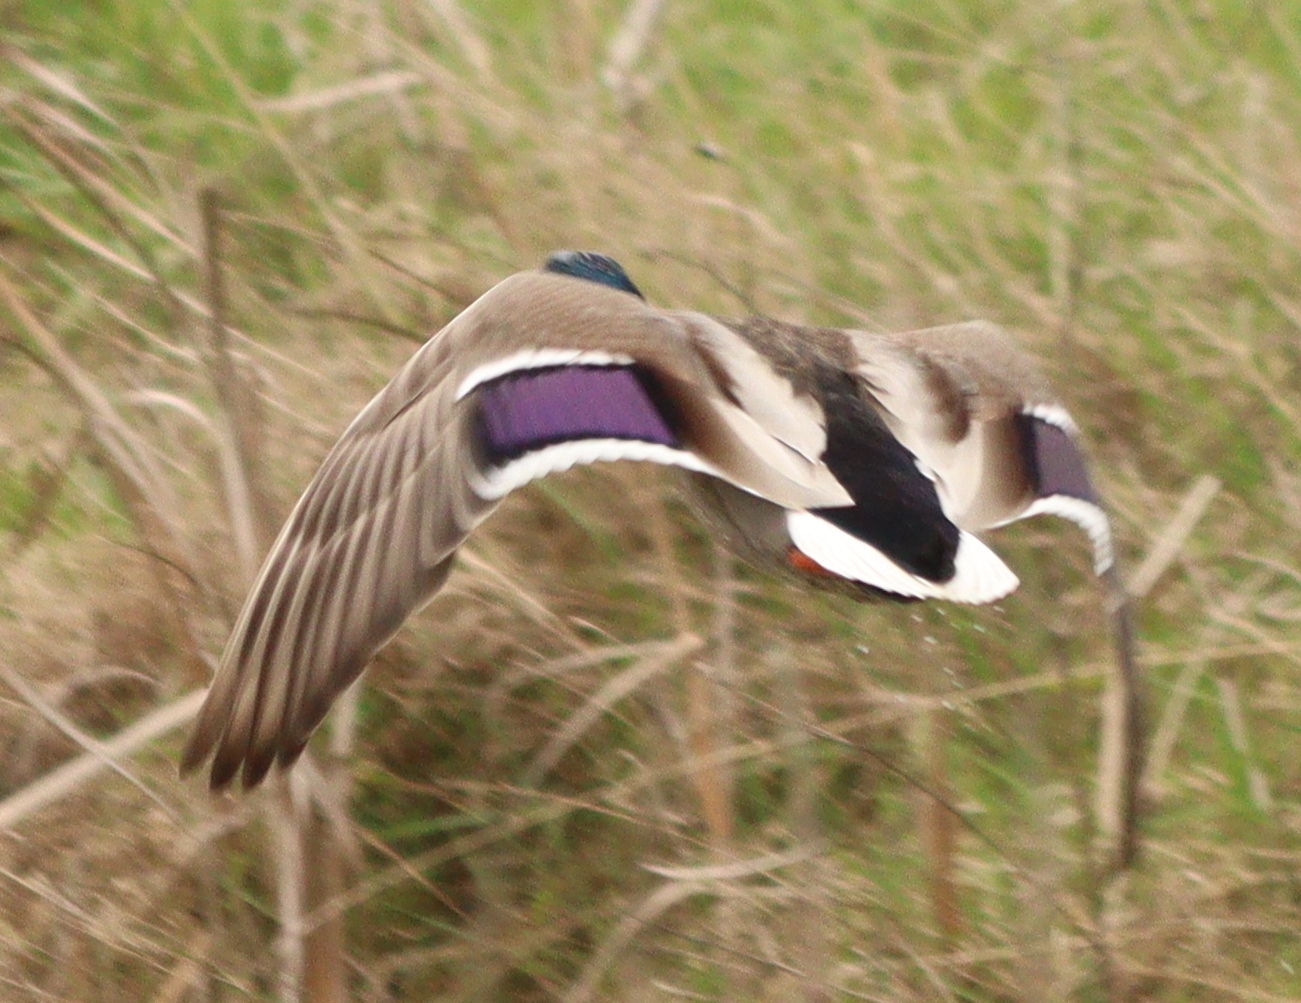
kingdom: Animalia
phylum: Chordata
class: Aves
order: Anseriformes
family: Anatidae
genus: Anas
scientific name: Anas platyrhynchos
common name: Mallard
